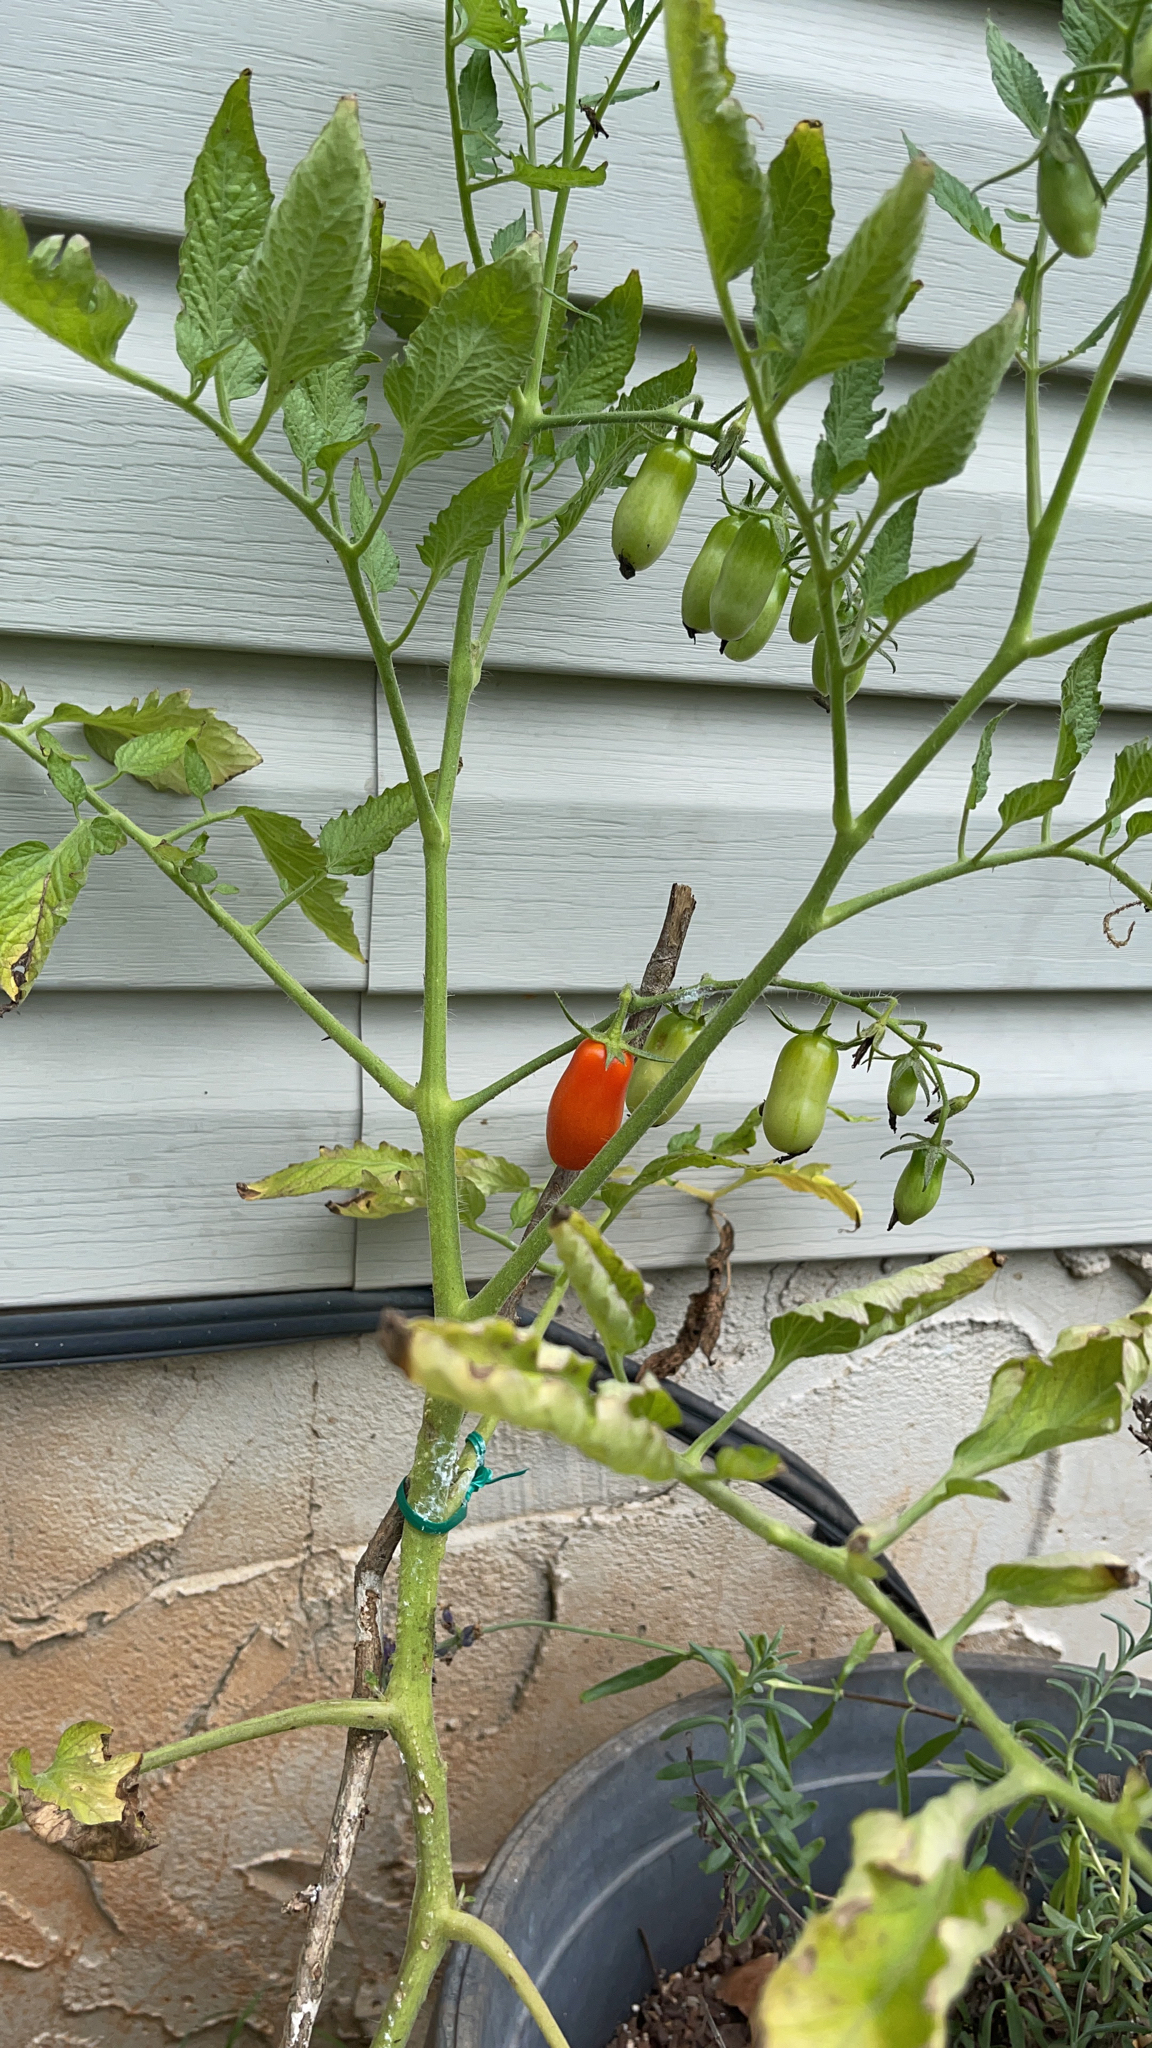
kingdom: Plantae
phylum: Tracheophyta
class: Magnoliopsida
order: Solanales
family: Solanaceae
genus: Solanum
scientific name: Solanum lycopersicum
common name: Garden tomato
